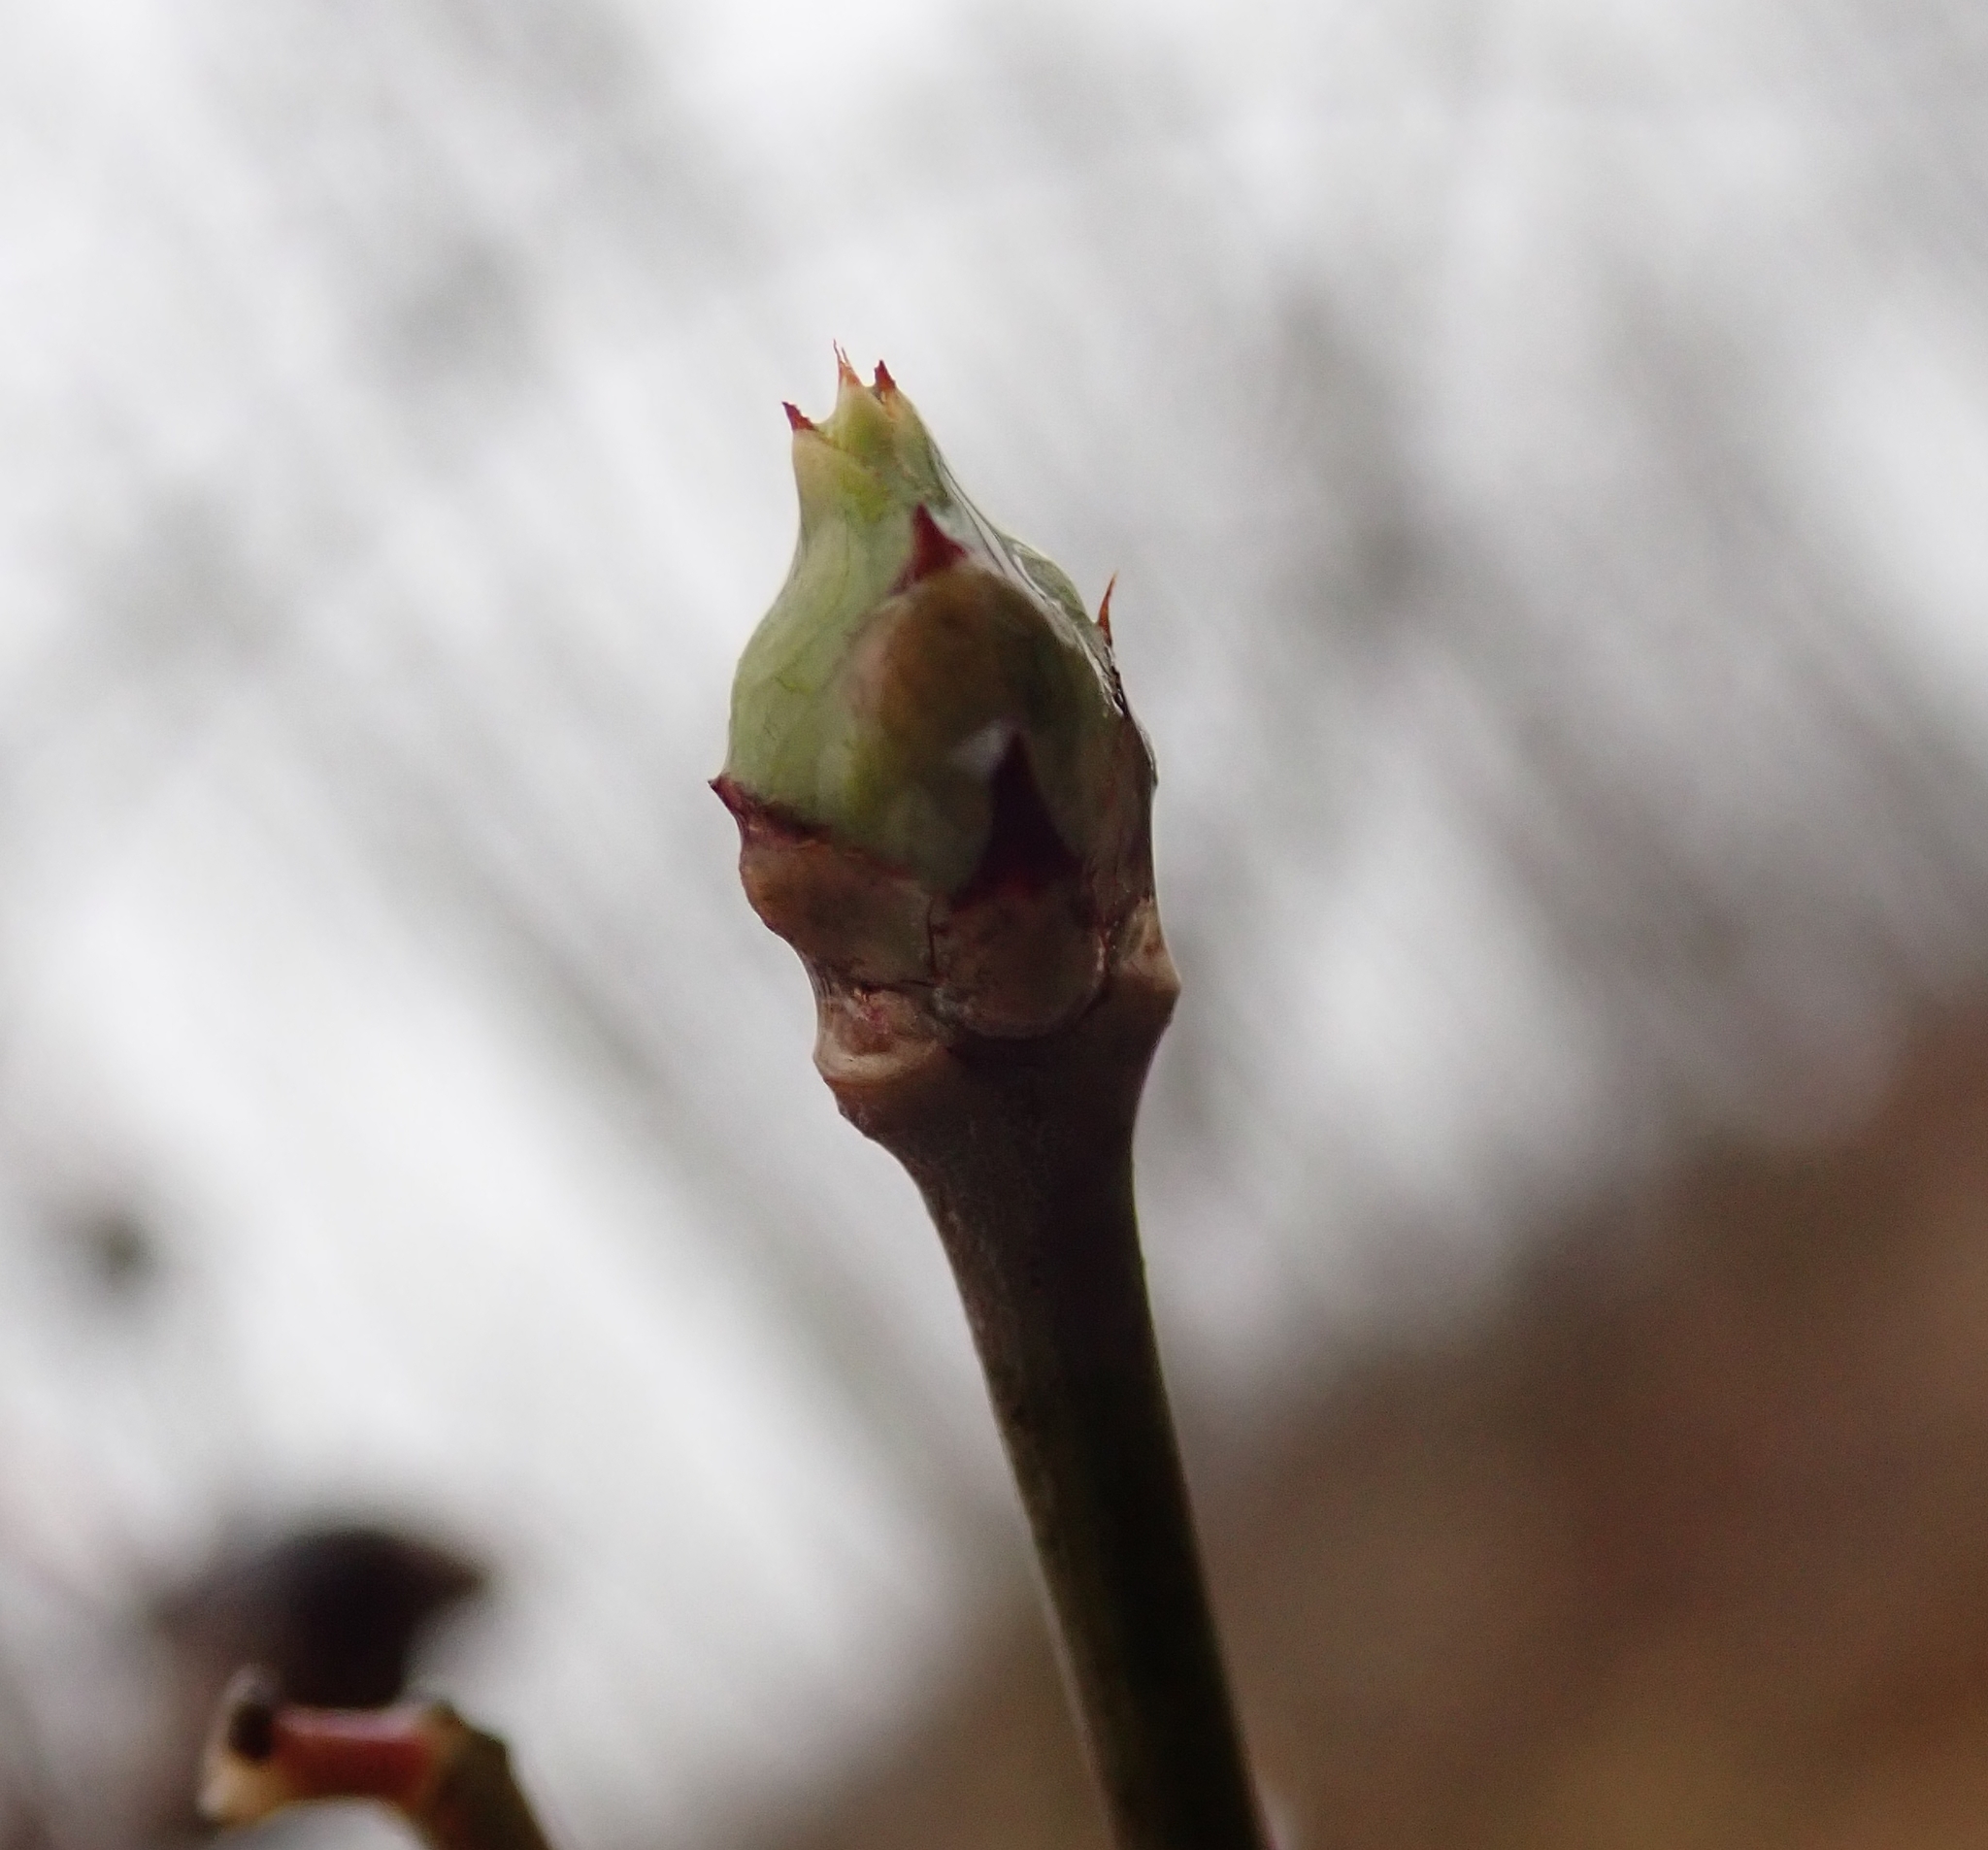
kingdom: Plantae
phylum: Tracheophyta
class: Magnoliopsida
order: Celastrales
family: Celastraceae
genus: Euonymus
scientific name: Euonymus europaeus
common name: Spindle
